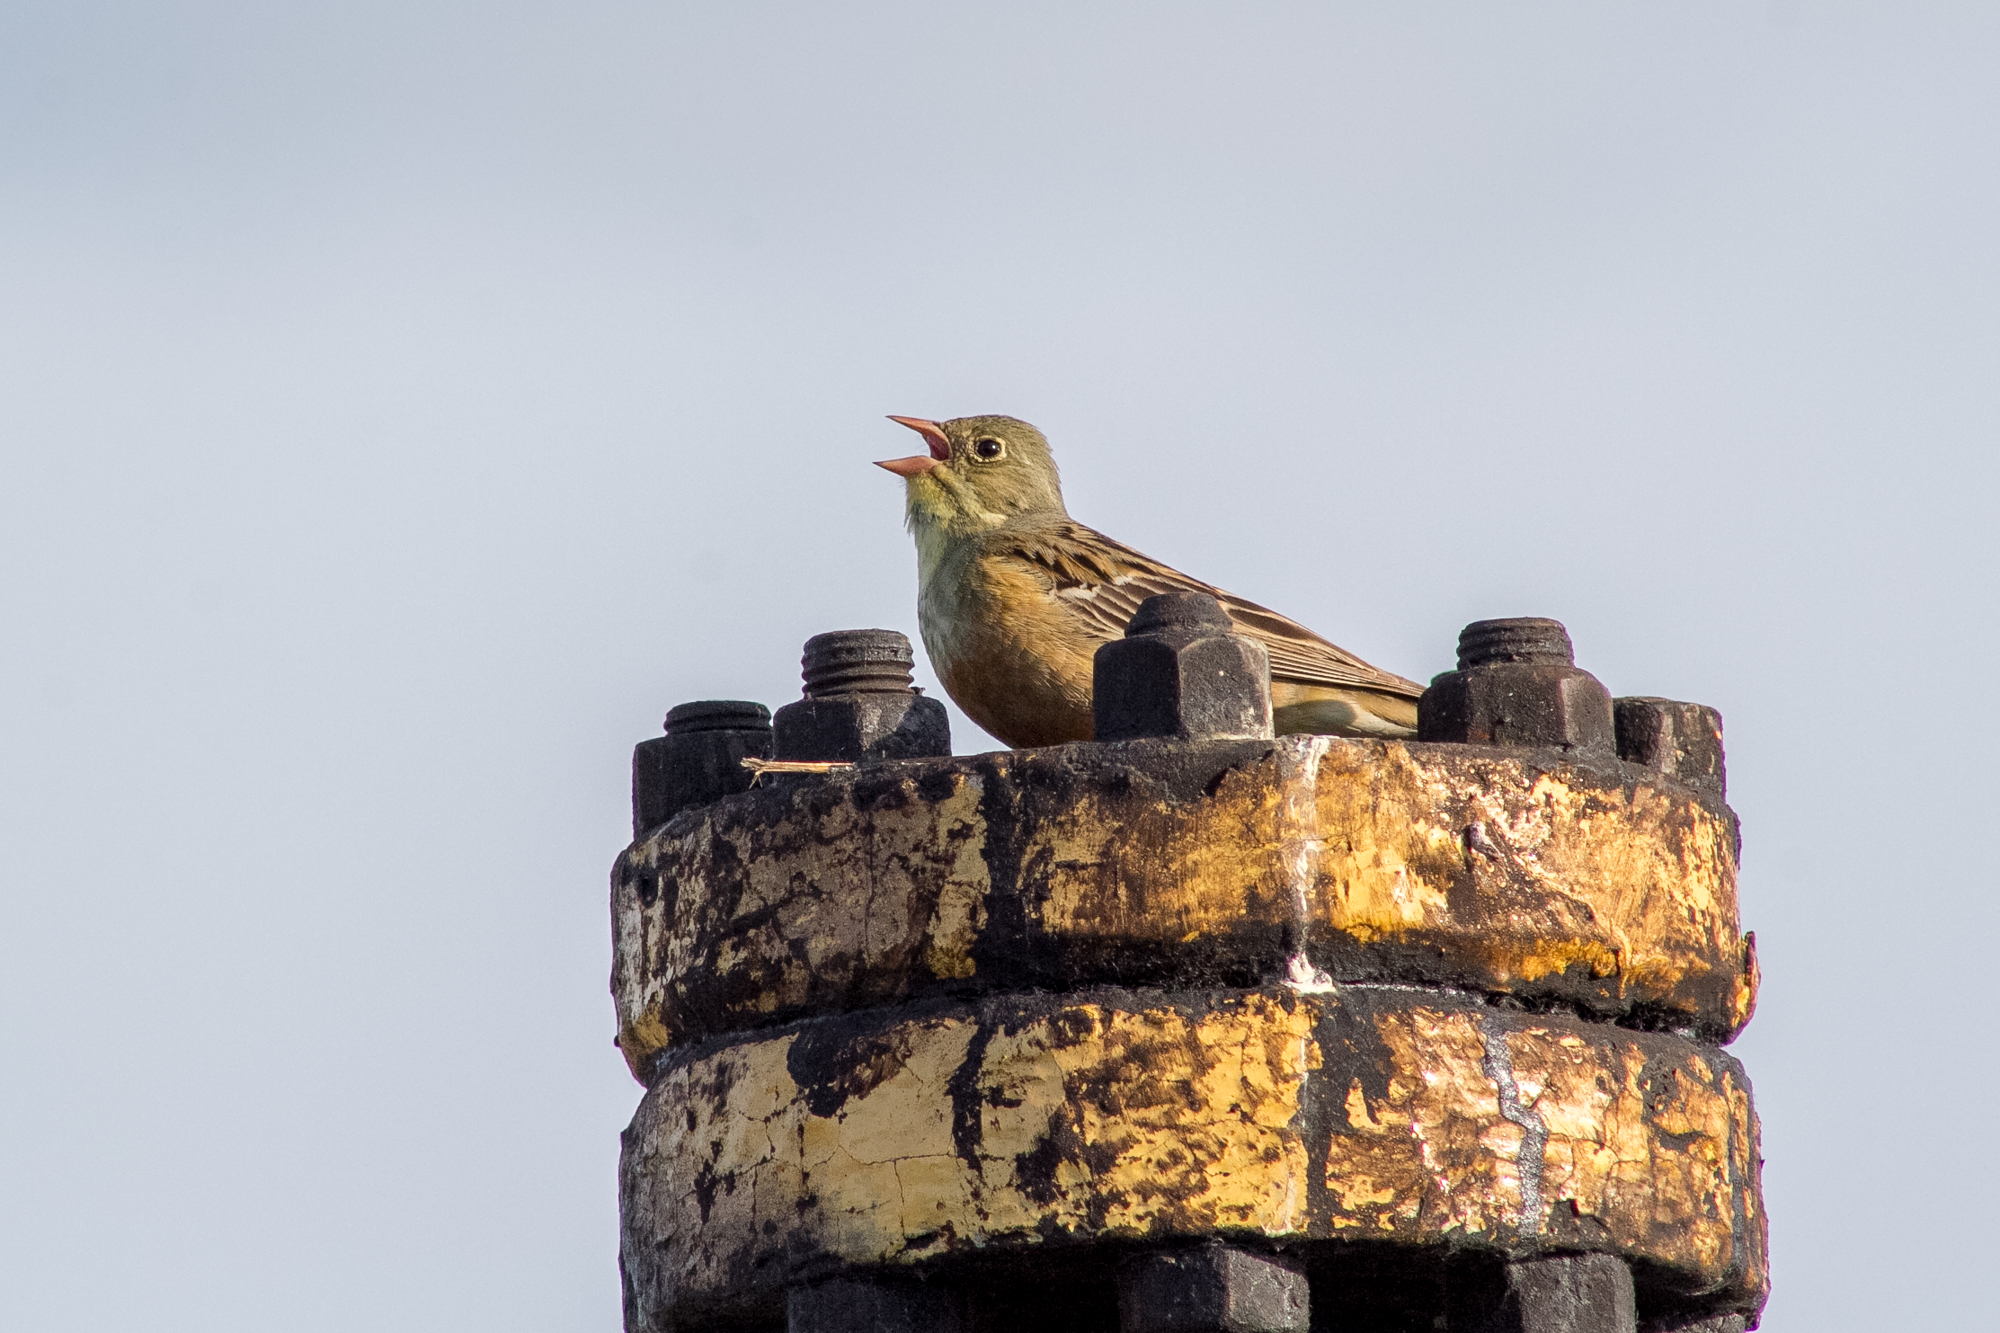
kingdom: Animalia
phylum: Chordata
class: Aves
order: Passeriformes
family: Emberizidae
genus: Emberiza
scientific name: Emberiza hortulana
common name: Ortolan bunting
